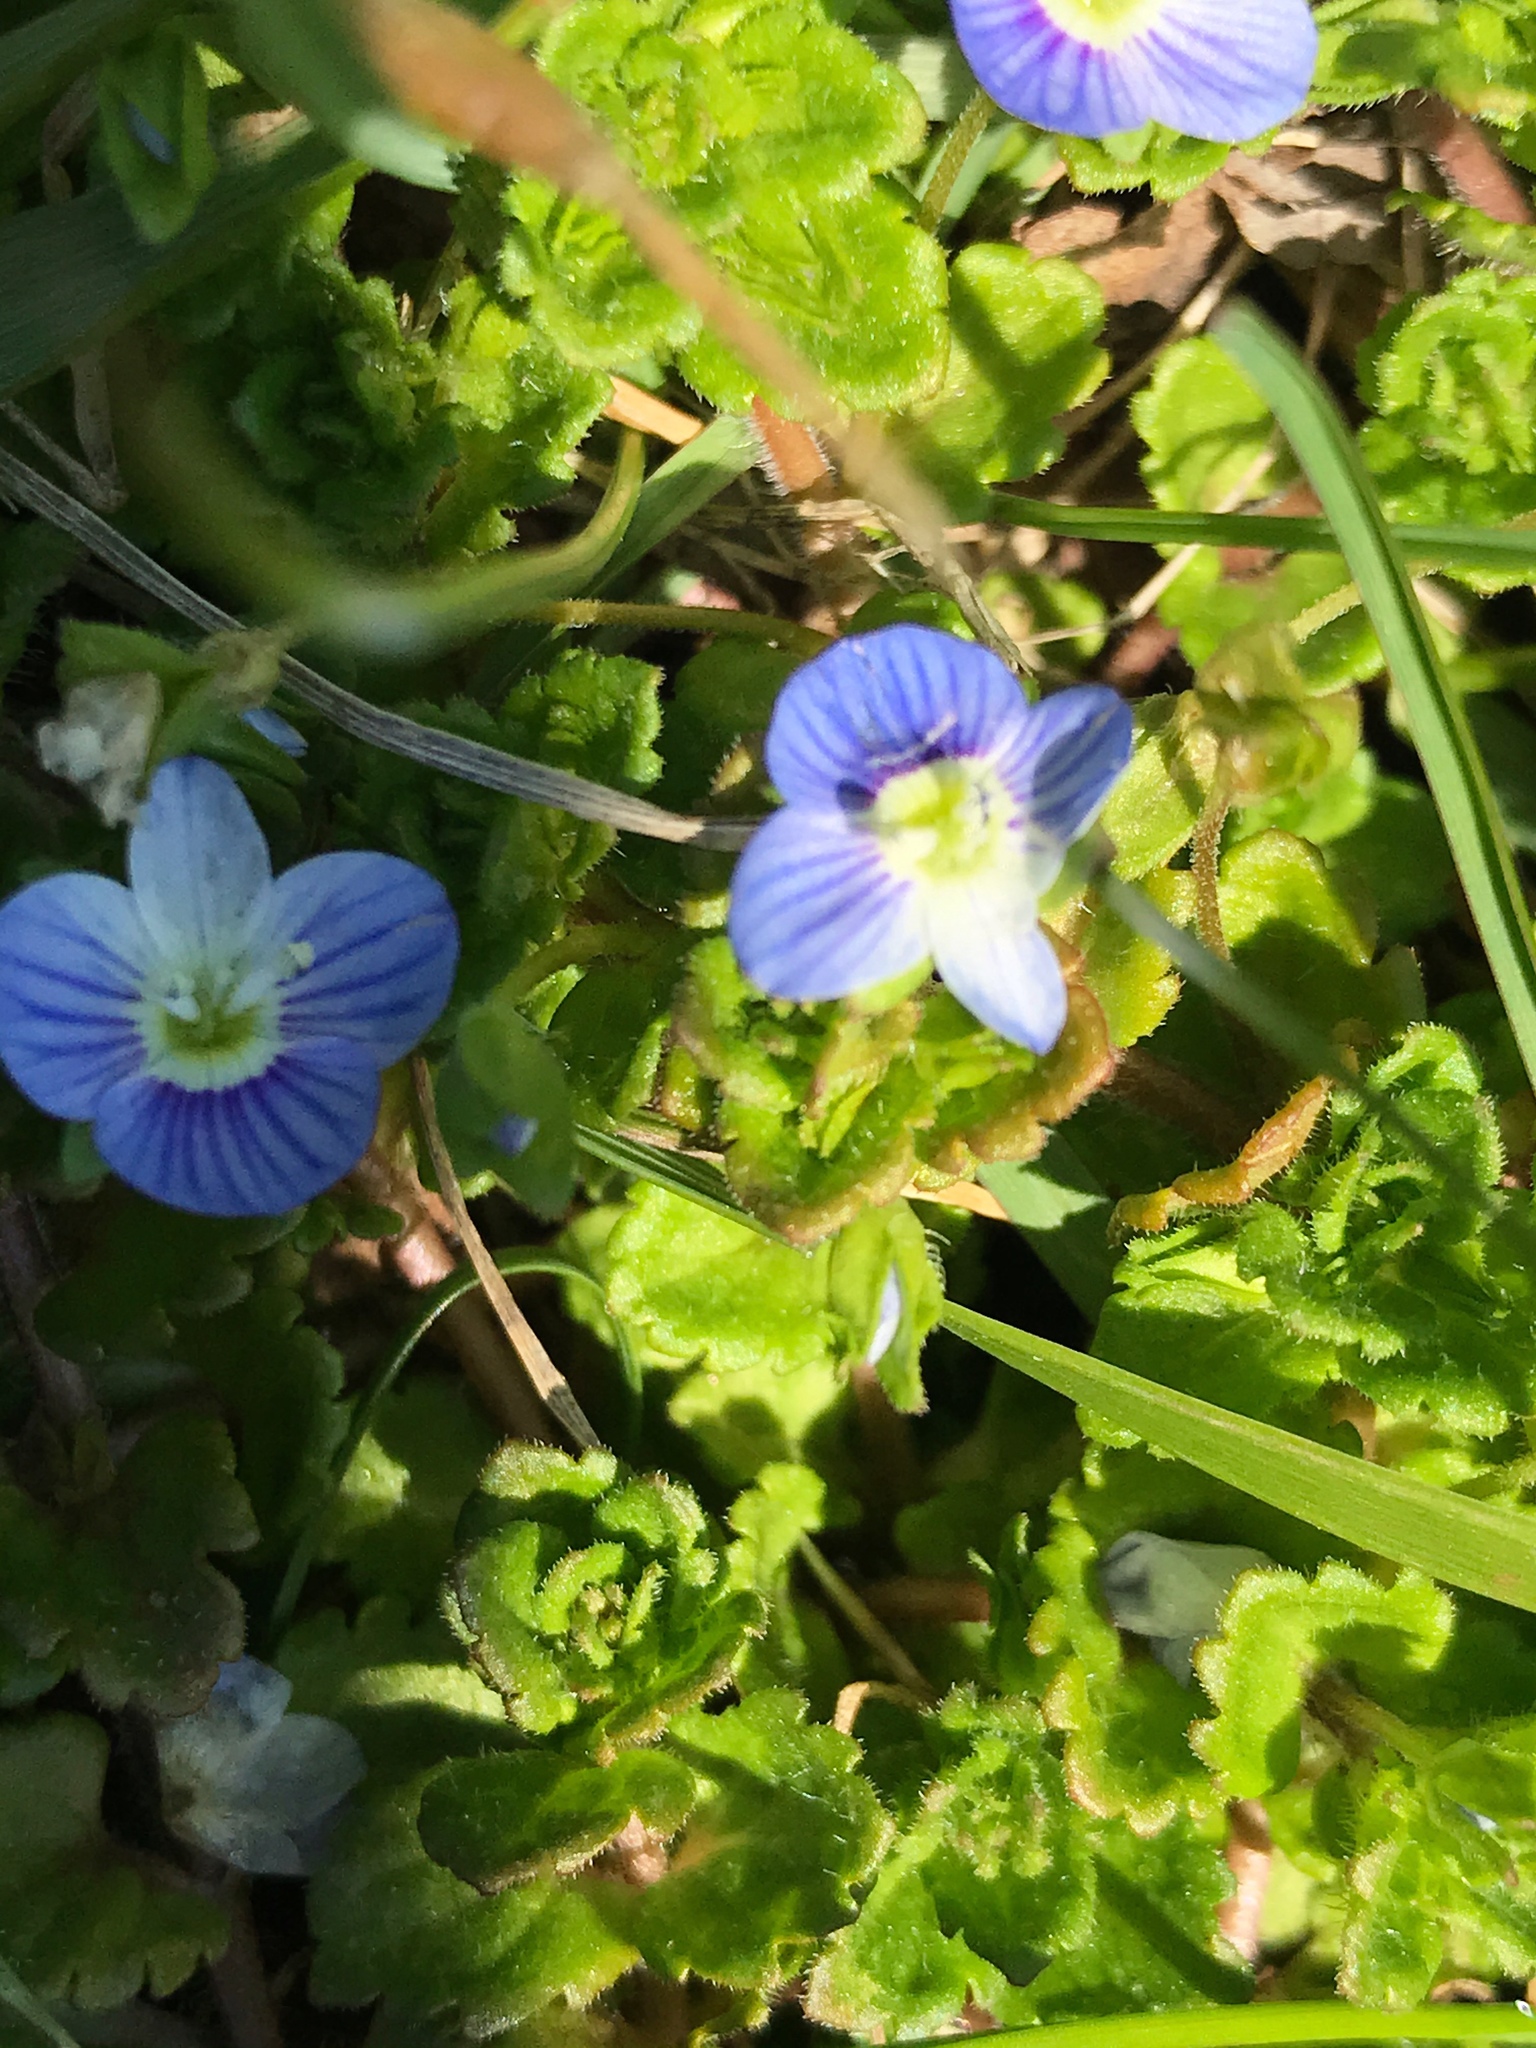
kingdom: Plantae
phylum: Tracheophyta
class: Magnoliopsida
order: Lamiales
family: Plantaginaceae
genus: Veronica
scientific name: Veronica persica
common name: Common field-speedwell
